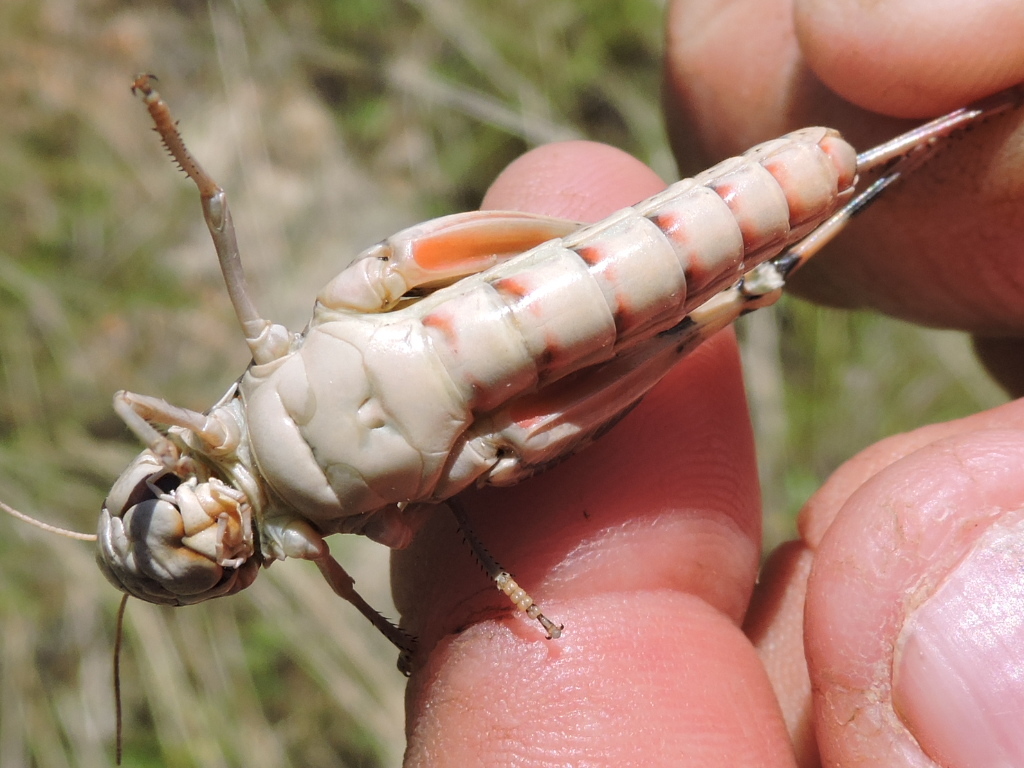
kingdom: Animalia
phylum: Arthropoda
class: Insecta
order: Orthoptera
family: Acrididae
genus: Boopedon
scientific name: Boopedon gracile
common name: Graceful range grasshopper
